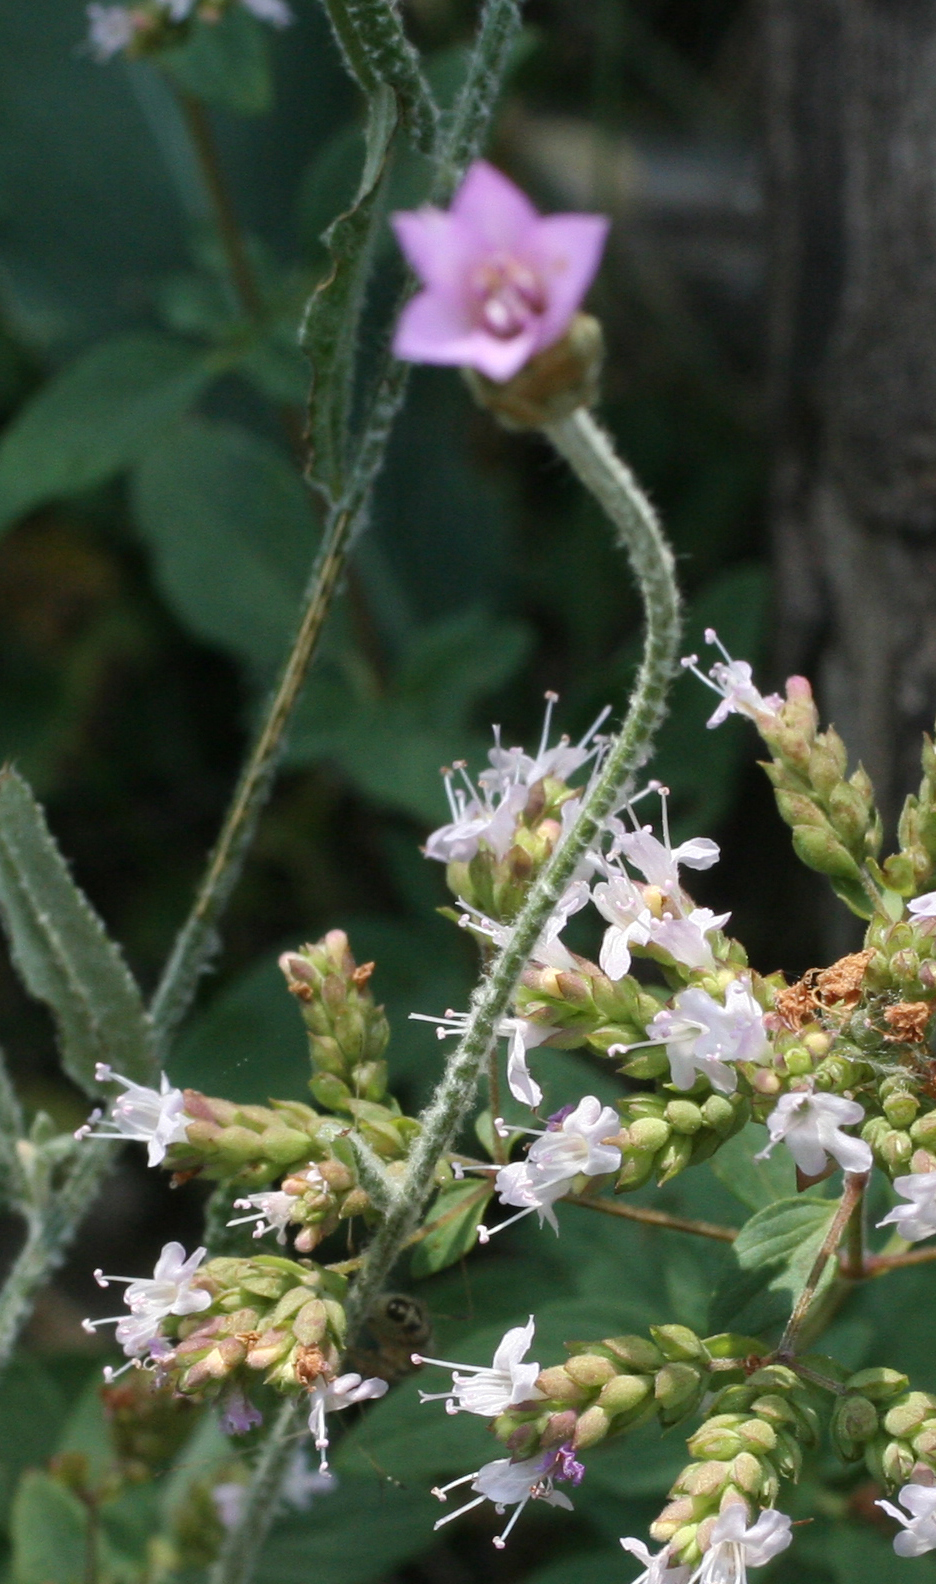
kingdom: Plantae
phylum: Tracheophyta
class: Magnoliopsida
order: Asterales
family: Asteraceae
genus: Xeranthemum
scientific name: Xeranthemum cylindraceum
